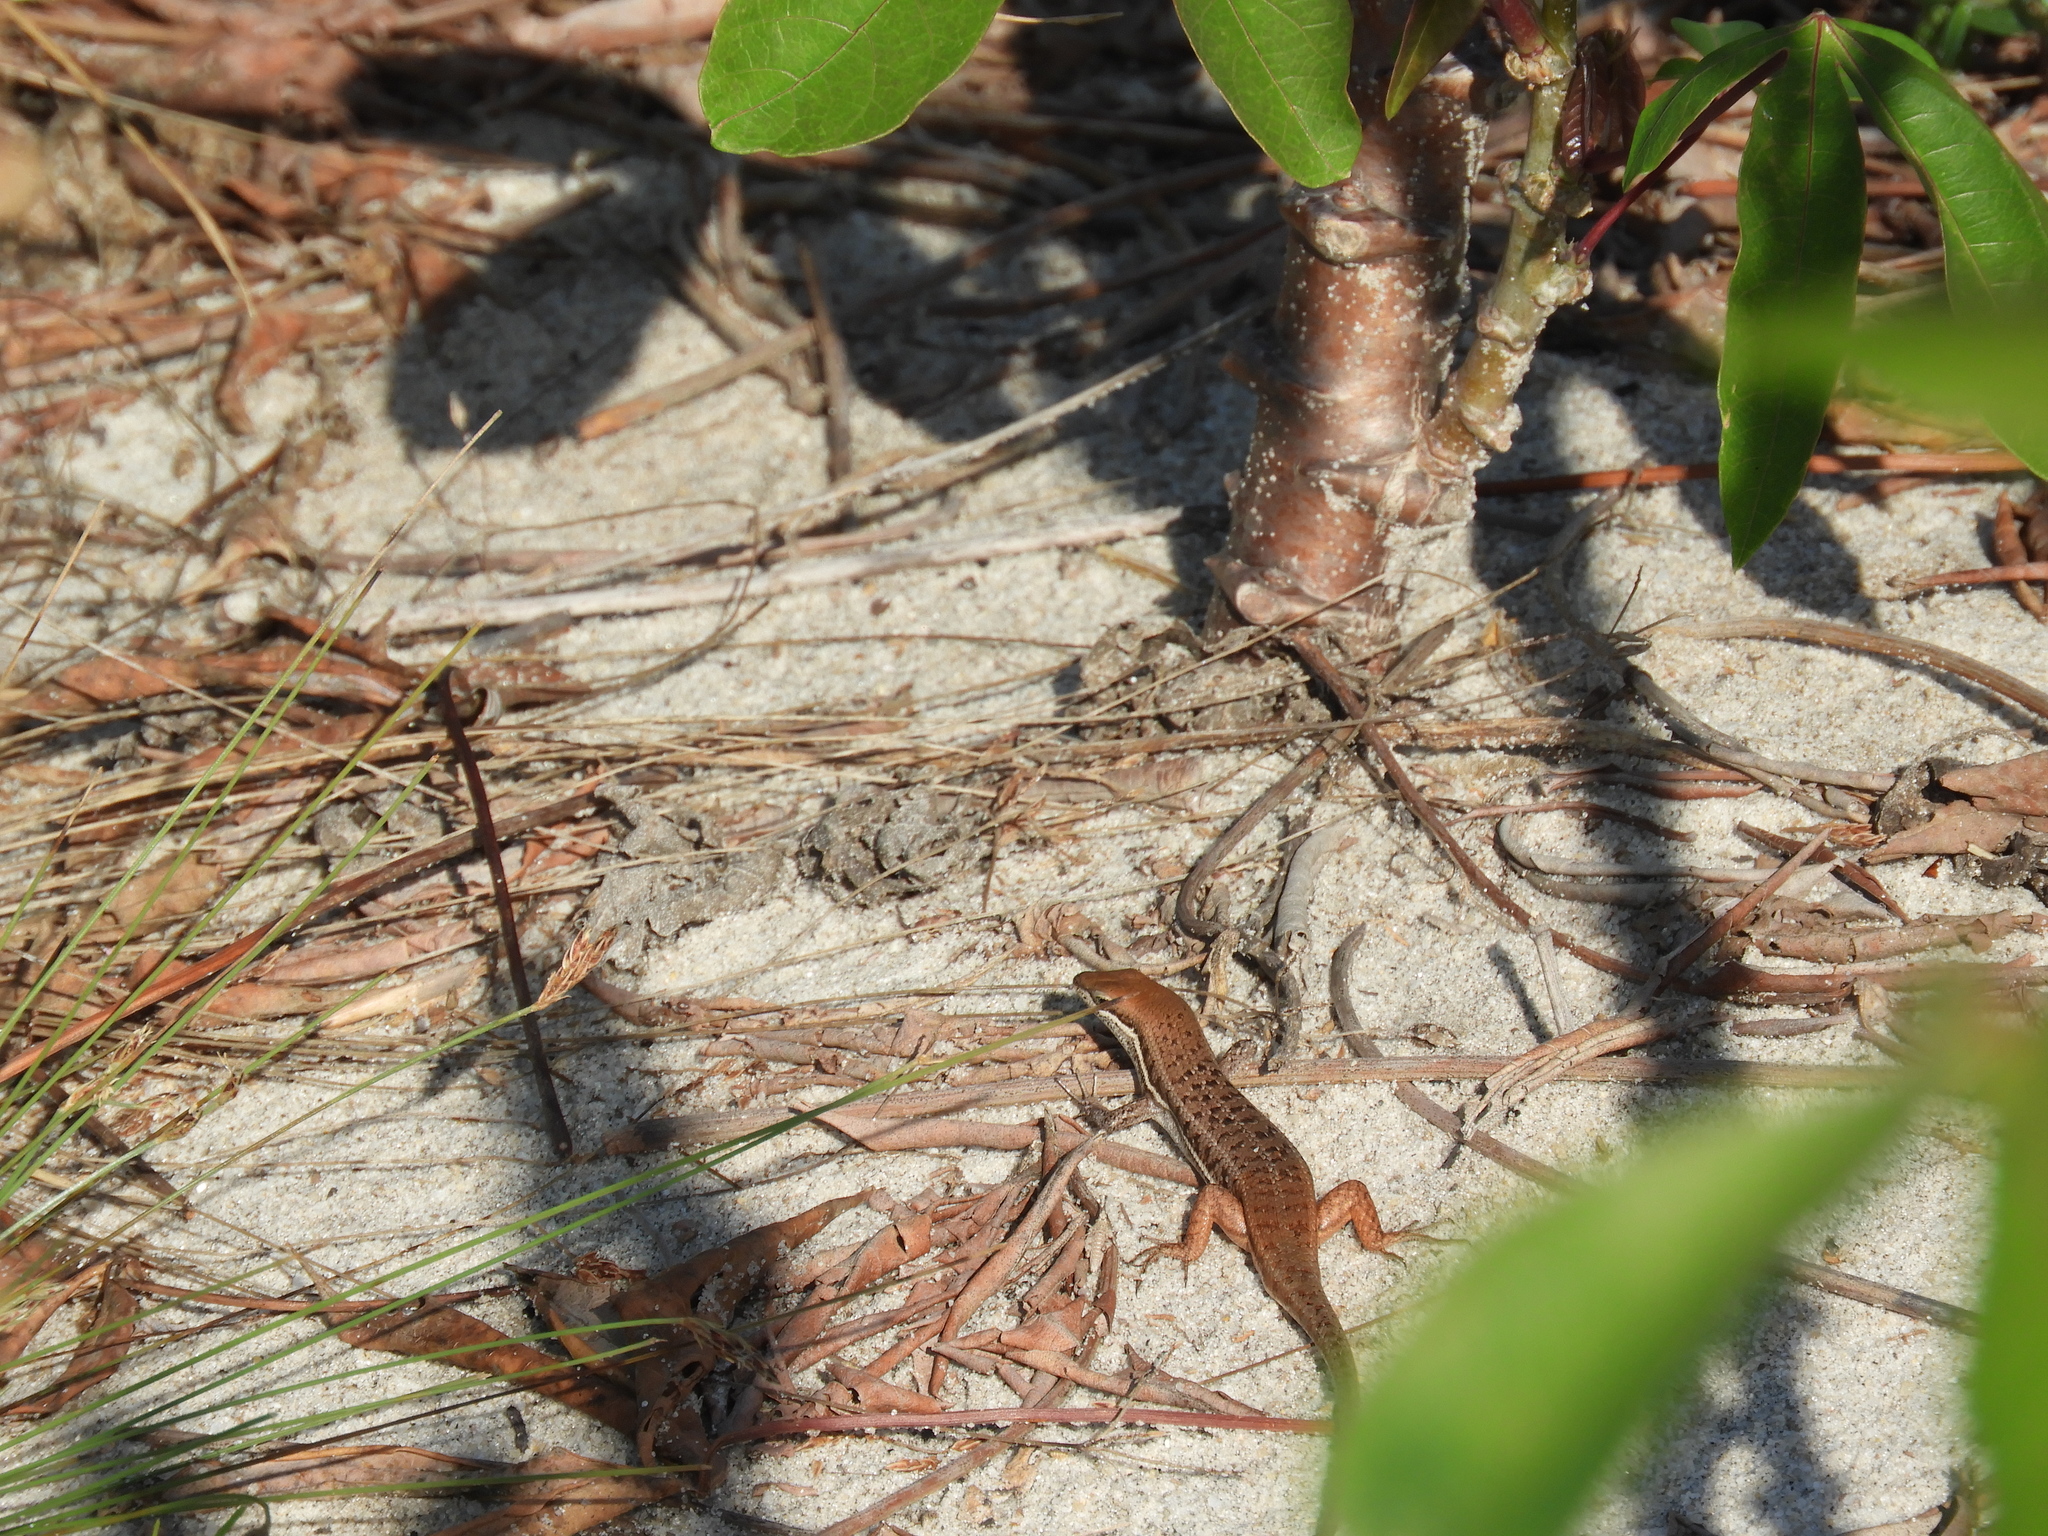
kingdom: Animalia
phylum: Chordata
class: Squamata
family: Scincidae
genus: Trachylepis
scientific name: Trachylepis varia
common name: Eastern variable skink
